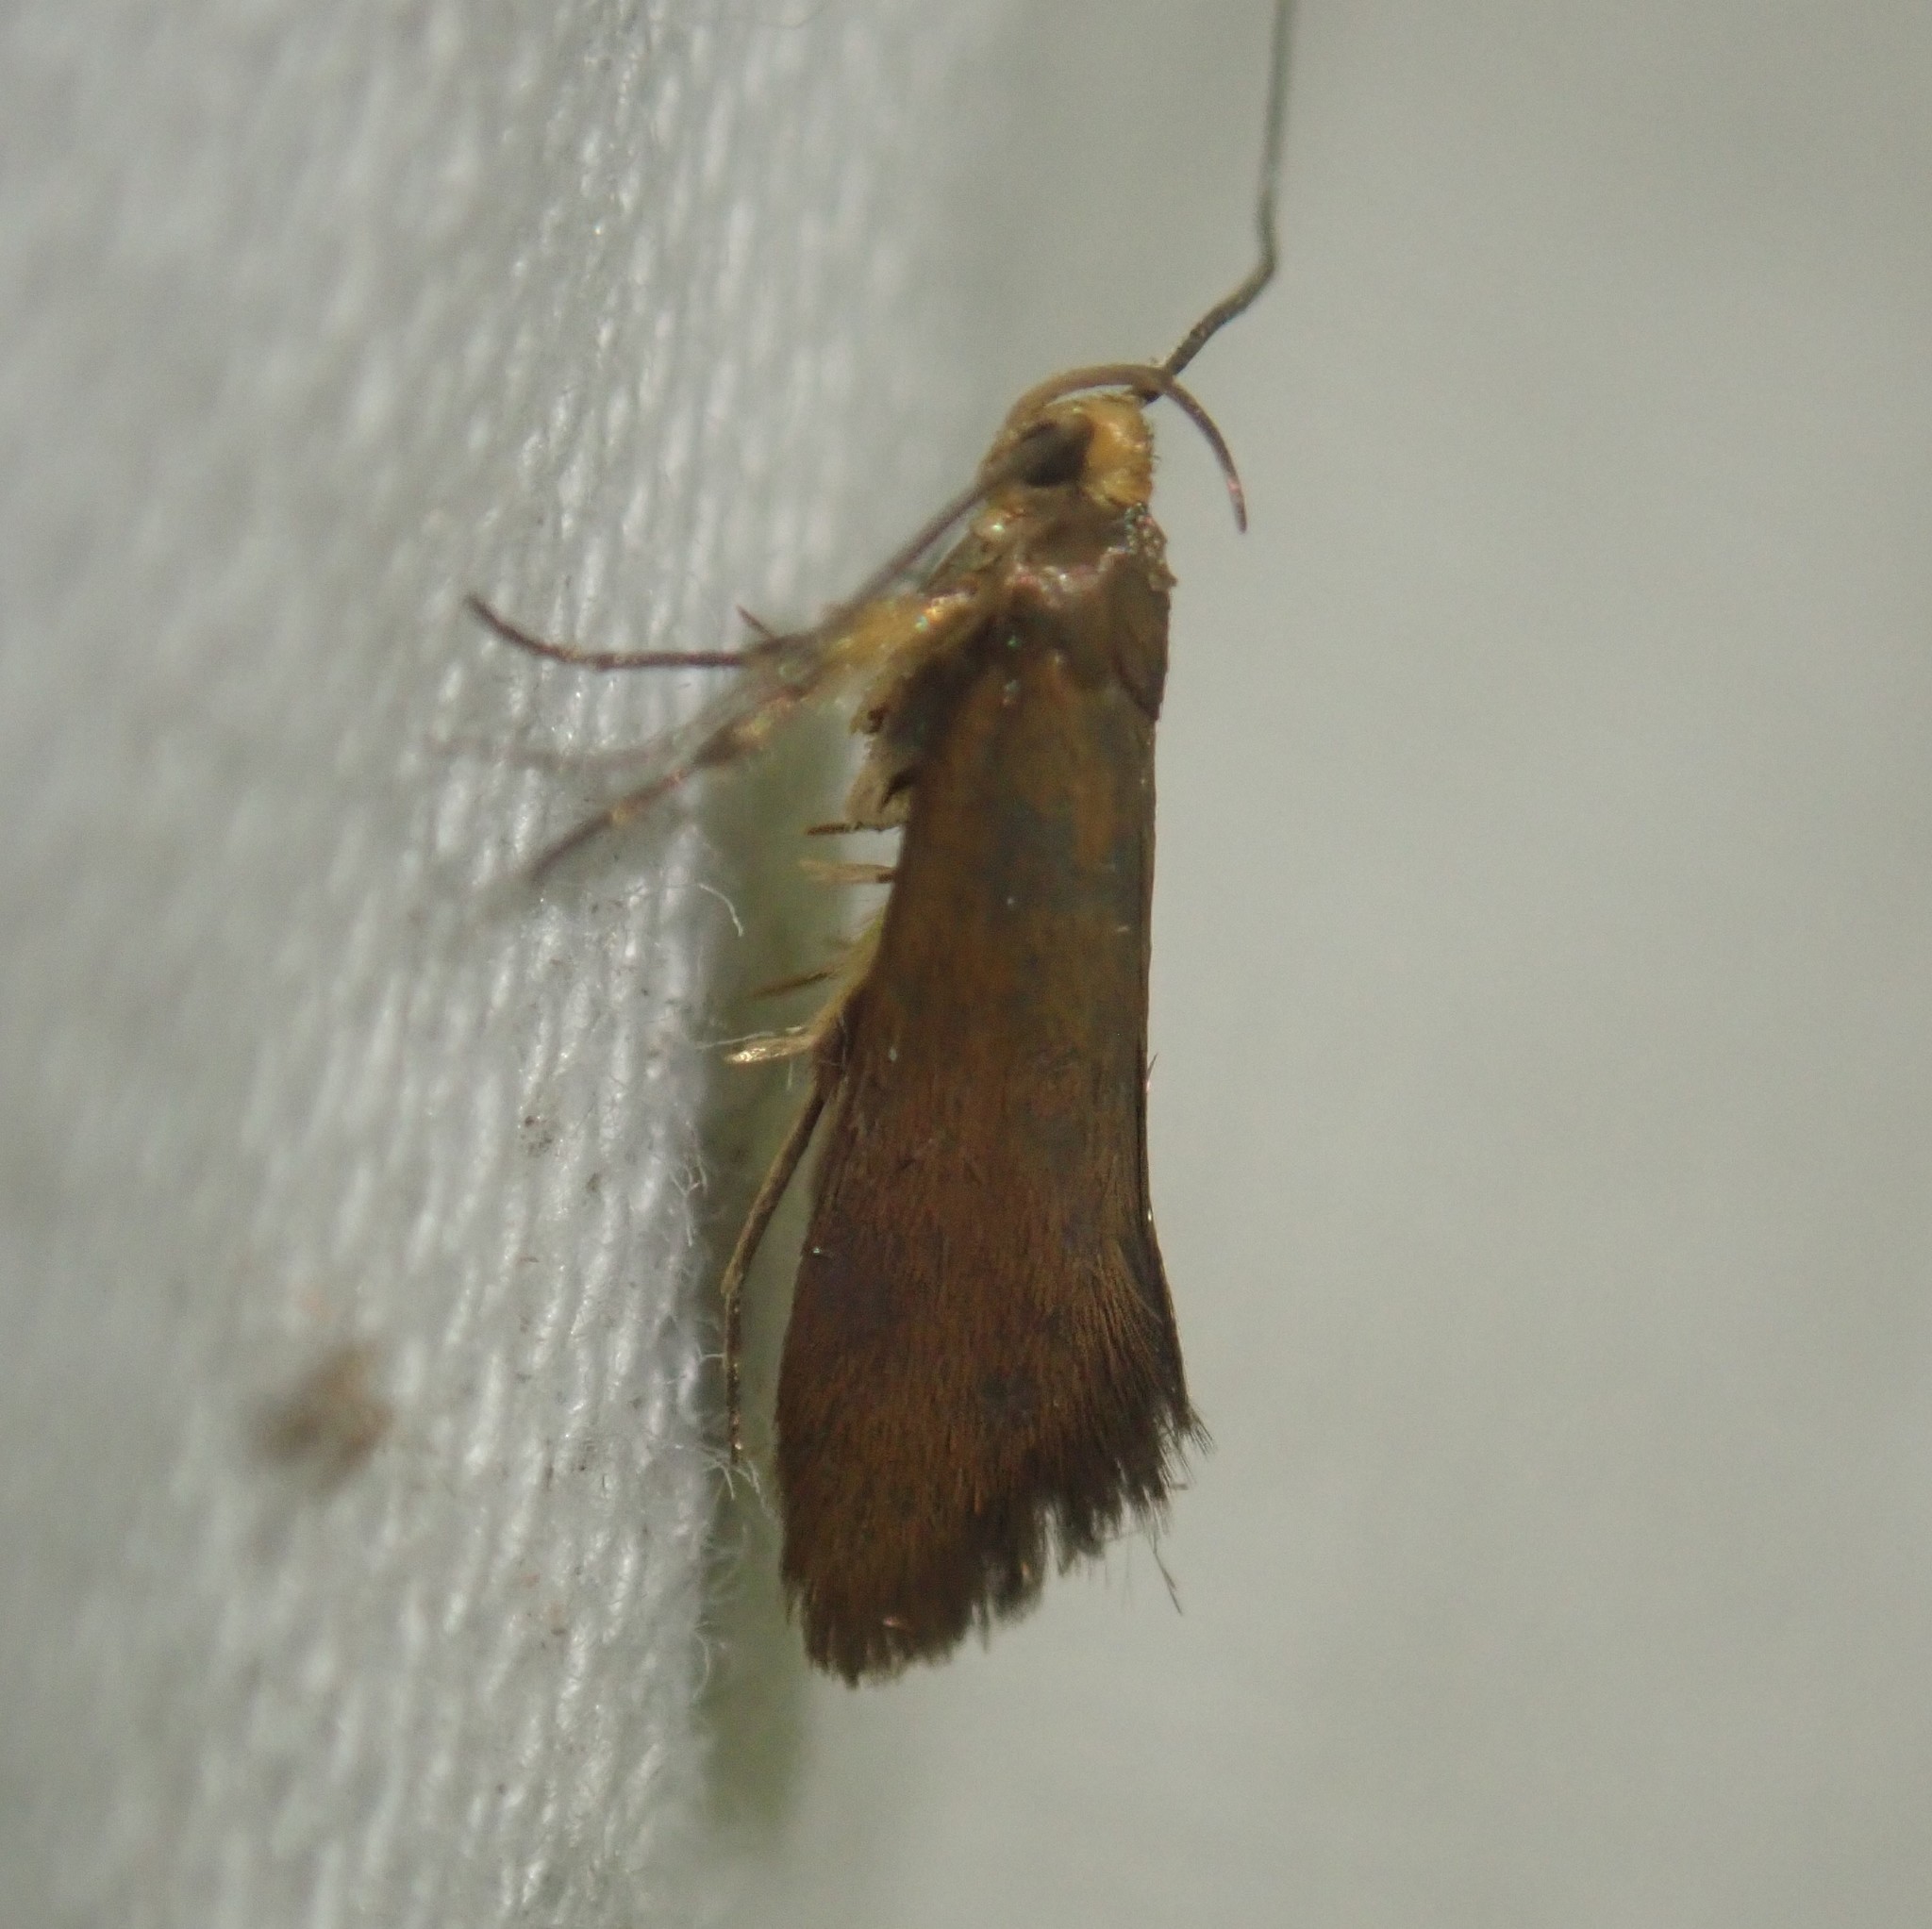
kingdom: Animalia
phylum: Arthropoda
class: Insecta
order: Lepidoptera
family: Oecophoridae
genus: Borkhausenia
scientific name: Borkhausenia Crassa unitella
